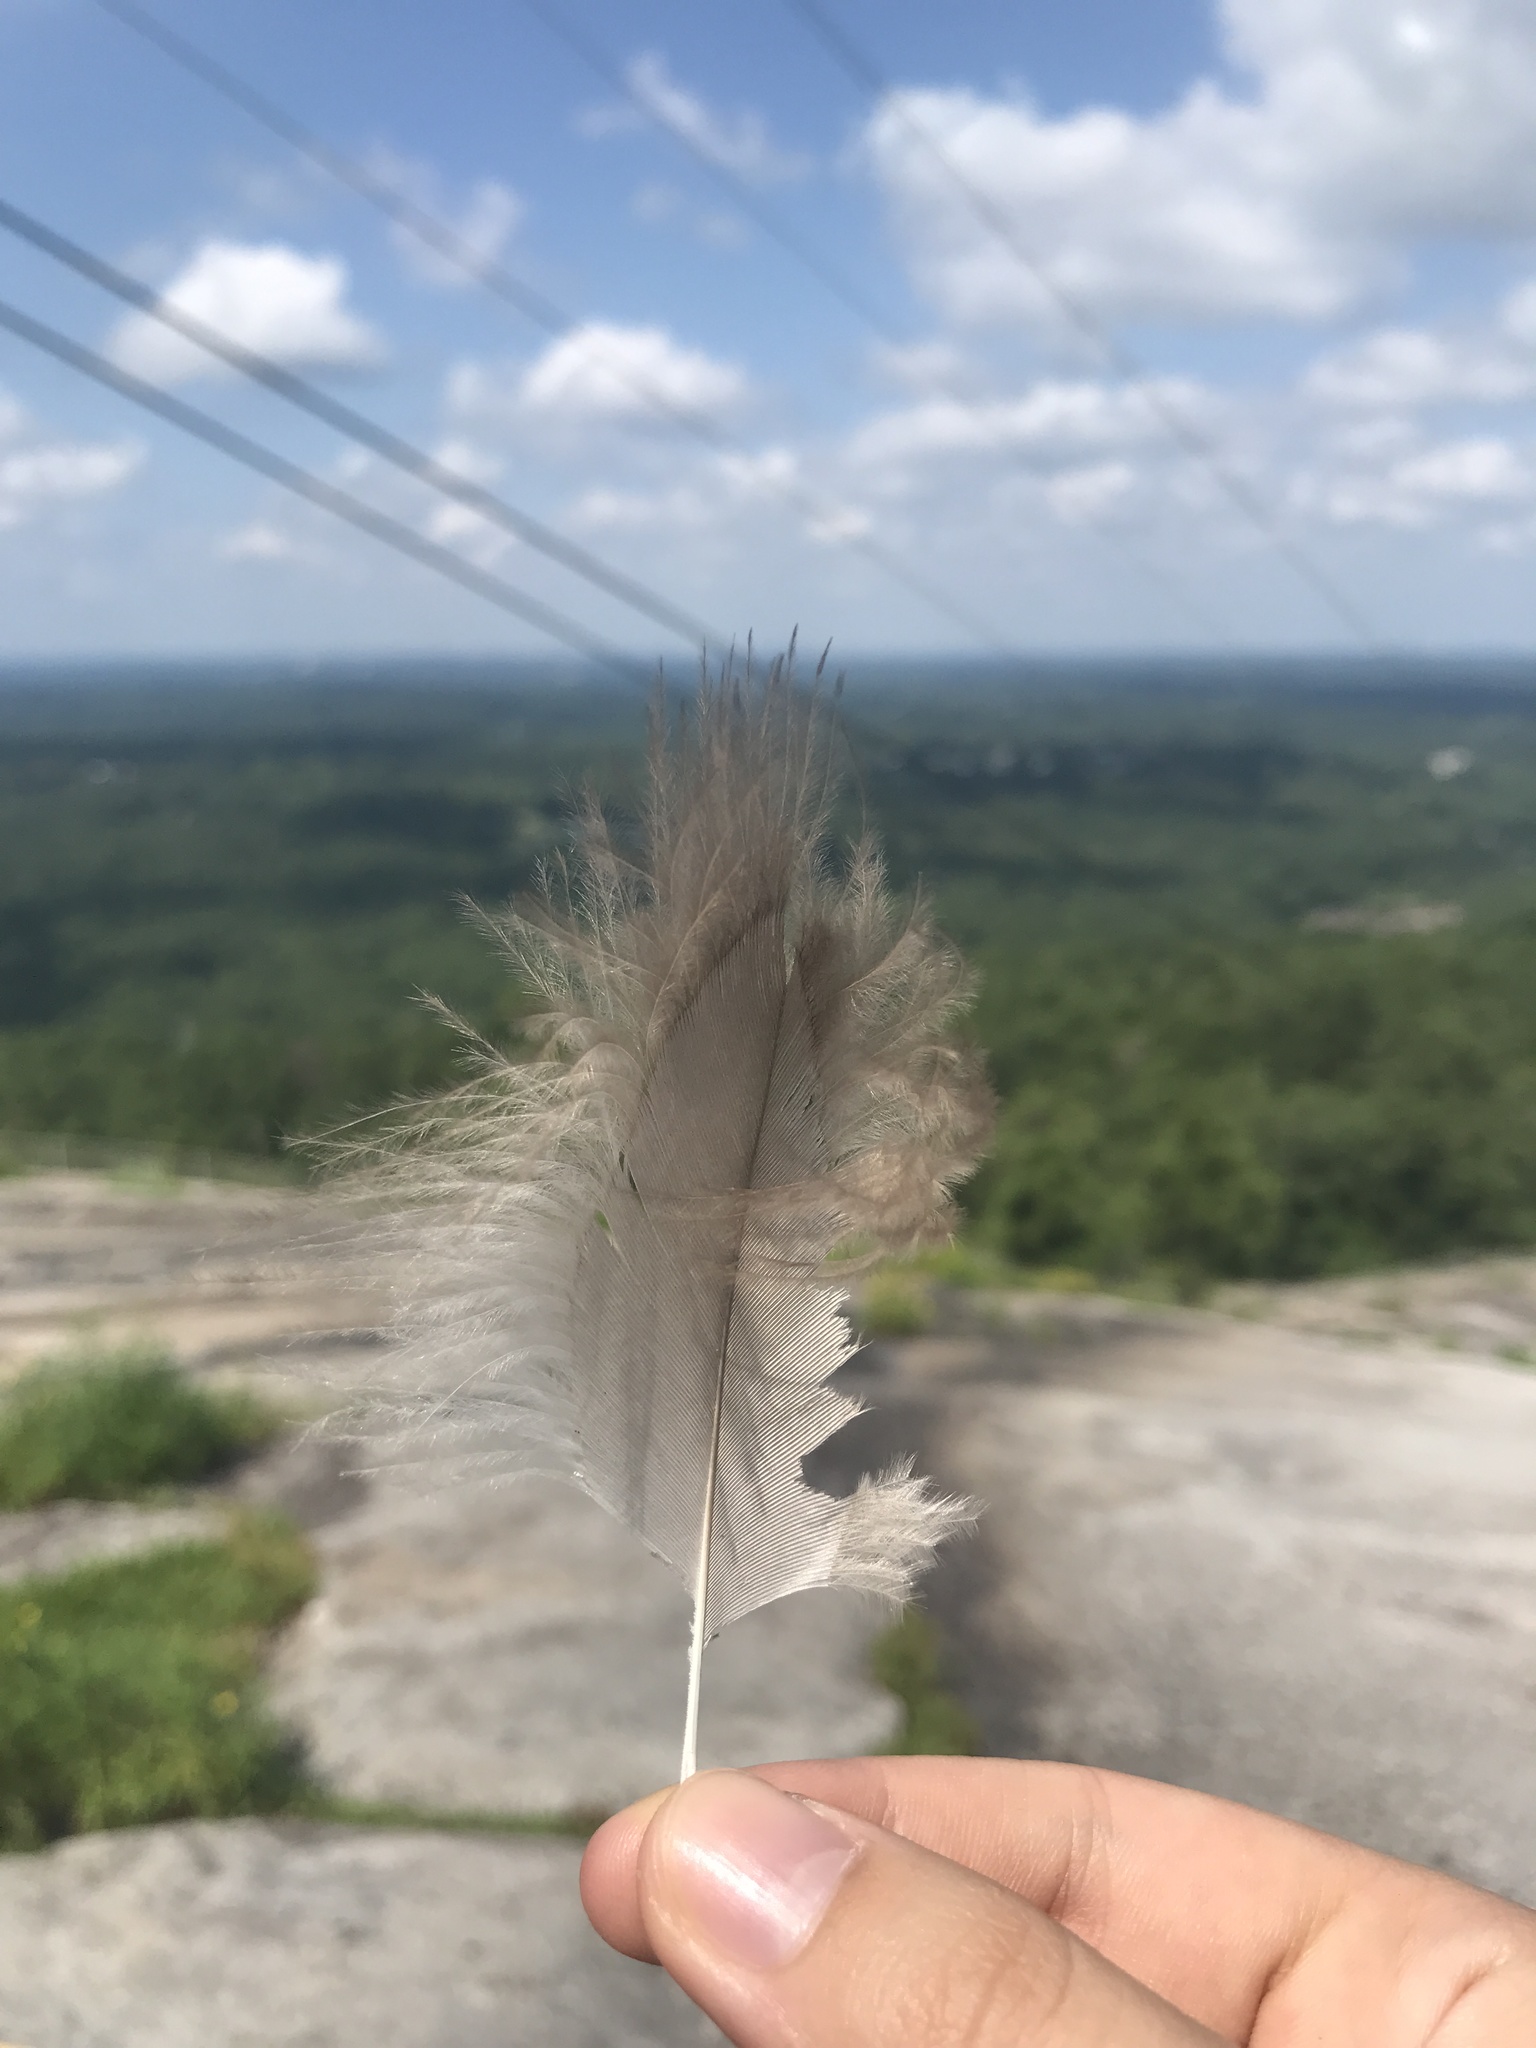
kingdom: Animalia
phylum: Chordata
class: Aves
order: Accipitriformes
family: Cathartidae
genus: Cathartes
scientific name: Cathartes aura
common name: Turkey vulture
